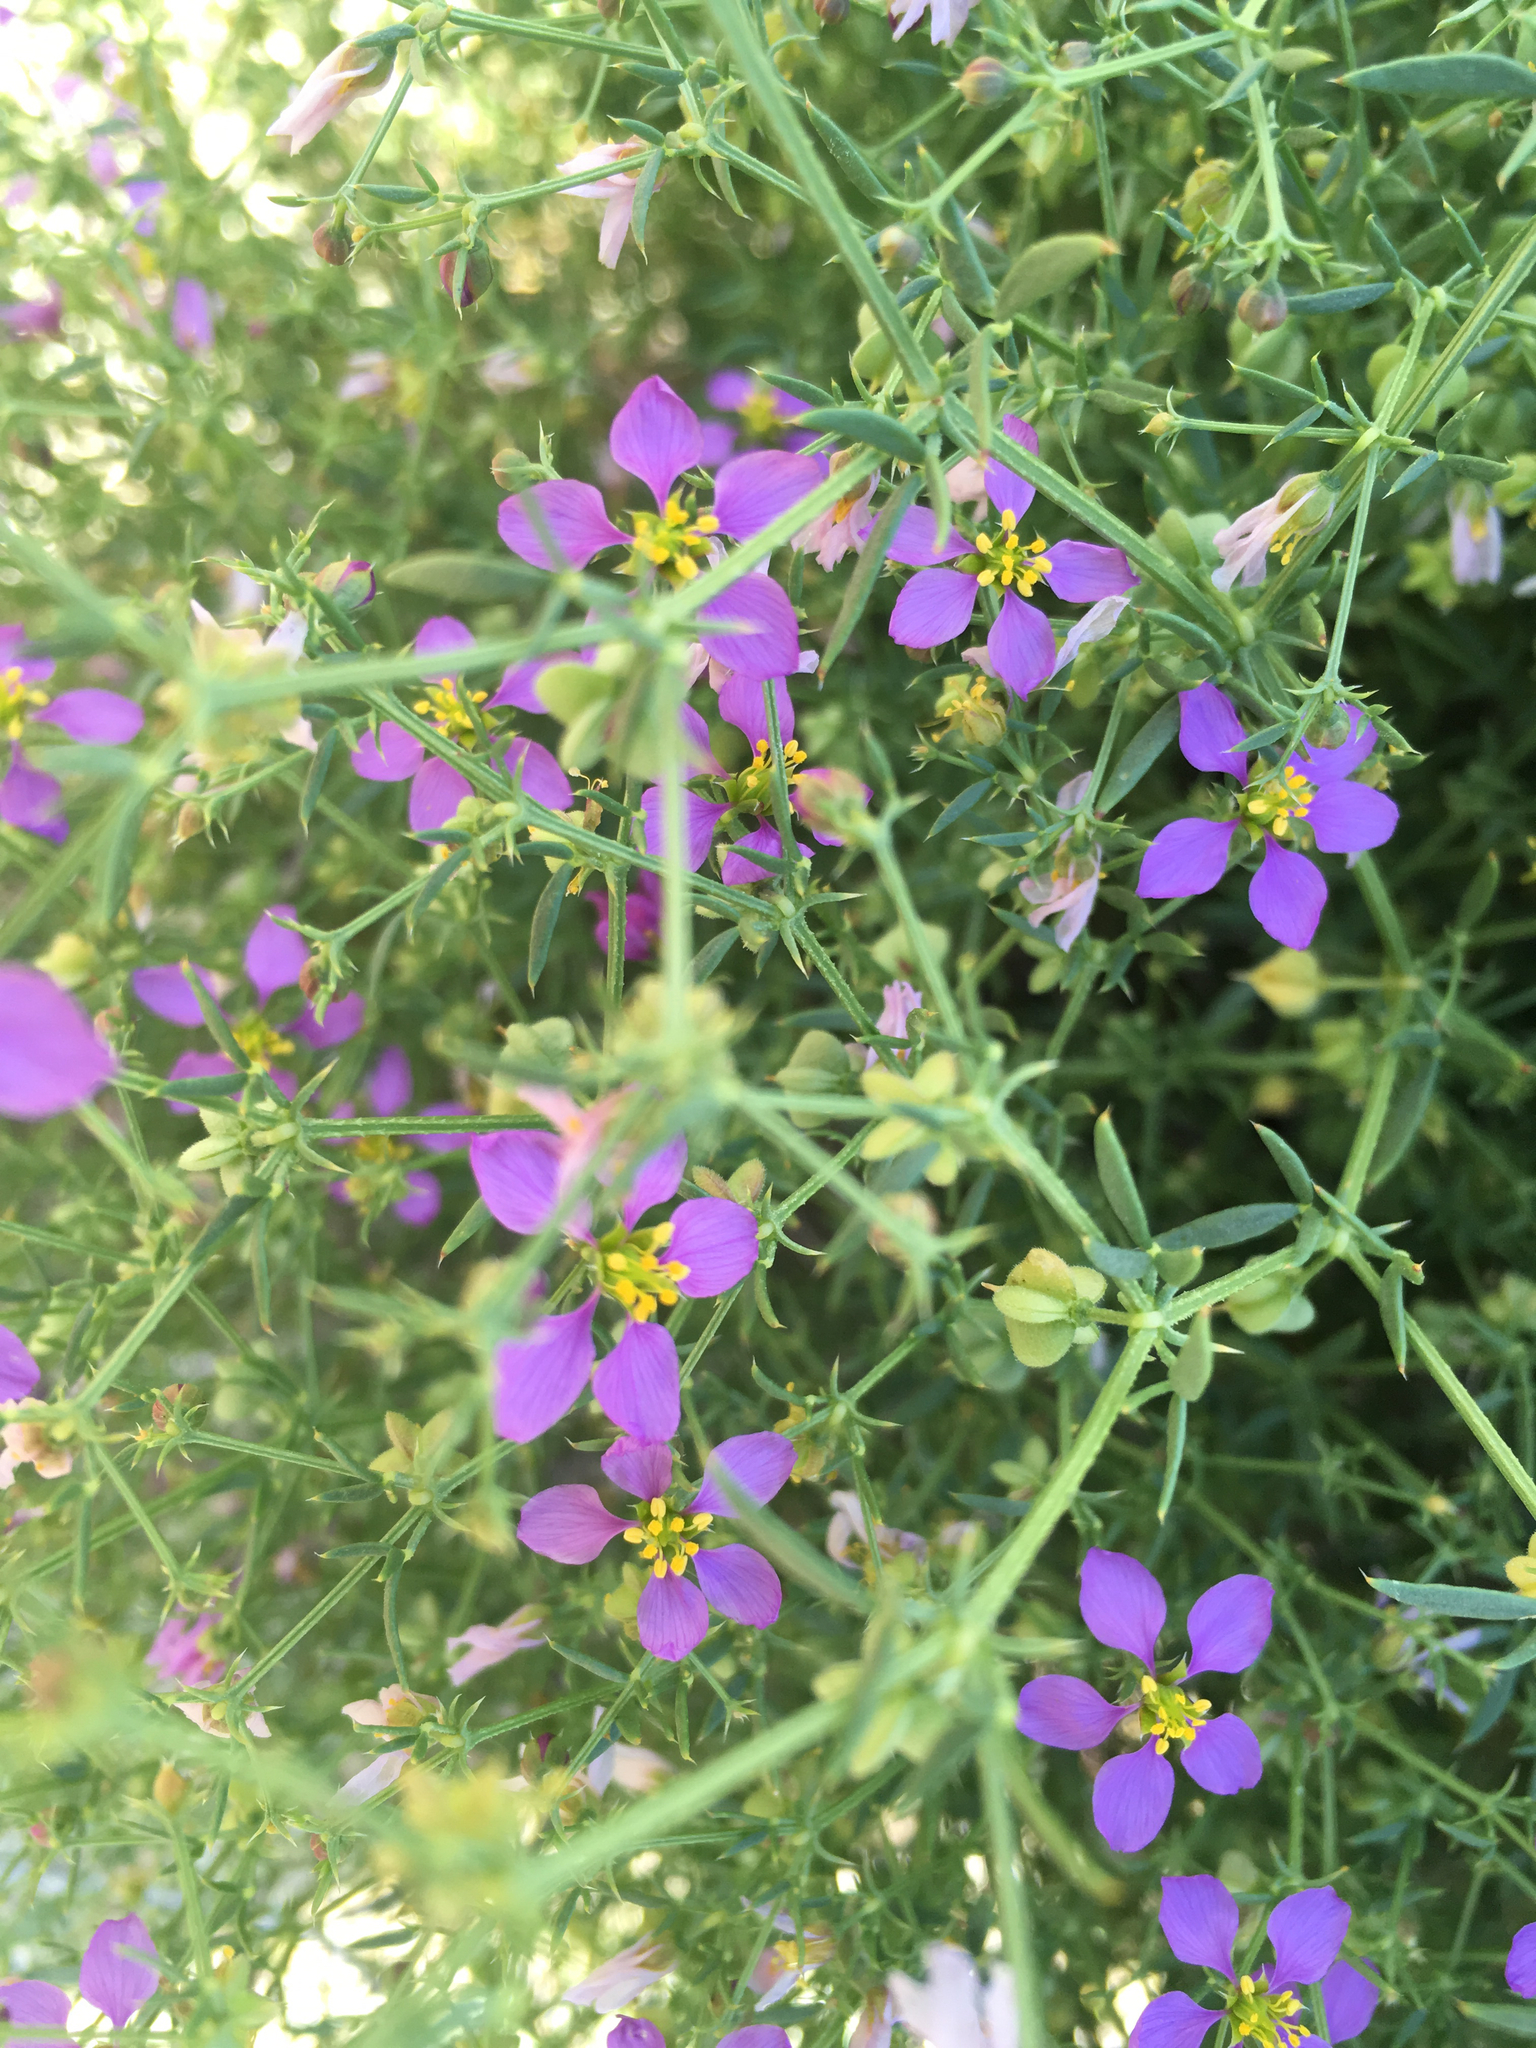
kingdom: Plantae
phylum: Tracheophyta
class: Magnoliopsida
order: Zygophyllales
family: Zygophyllaceae
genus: Fagonia
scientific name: Fagonia laevis
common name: California fagonbush
